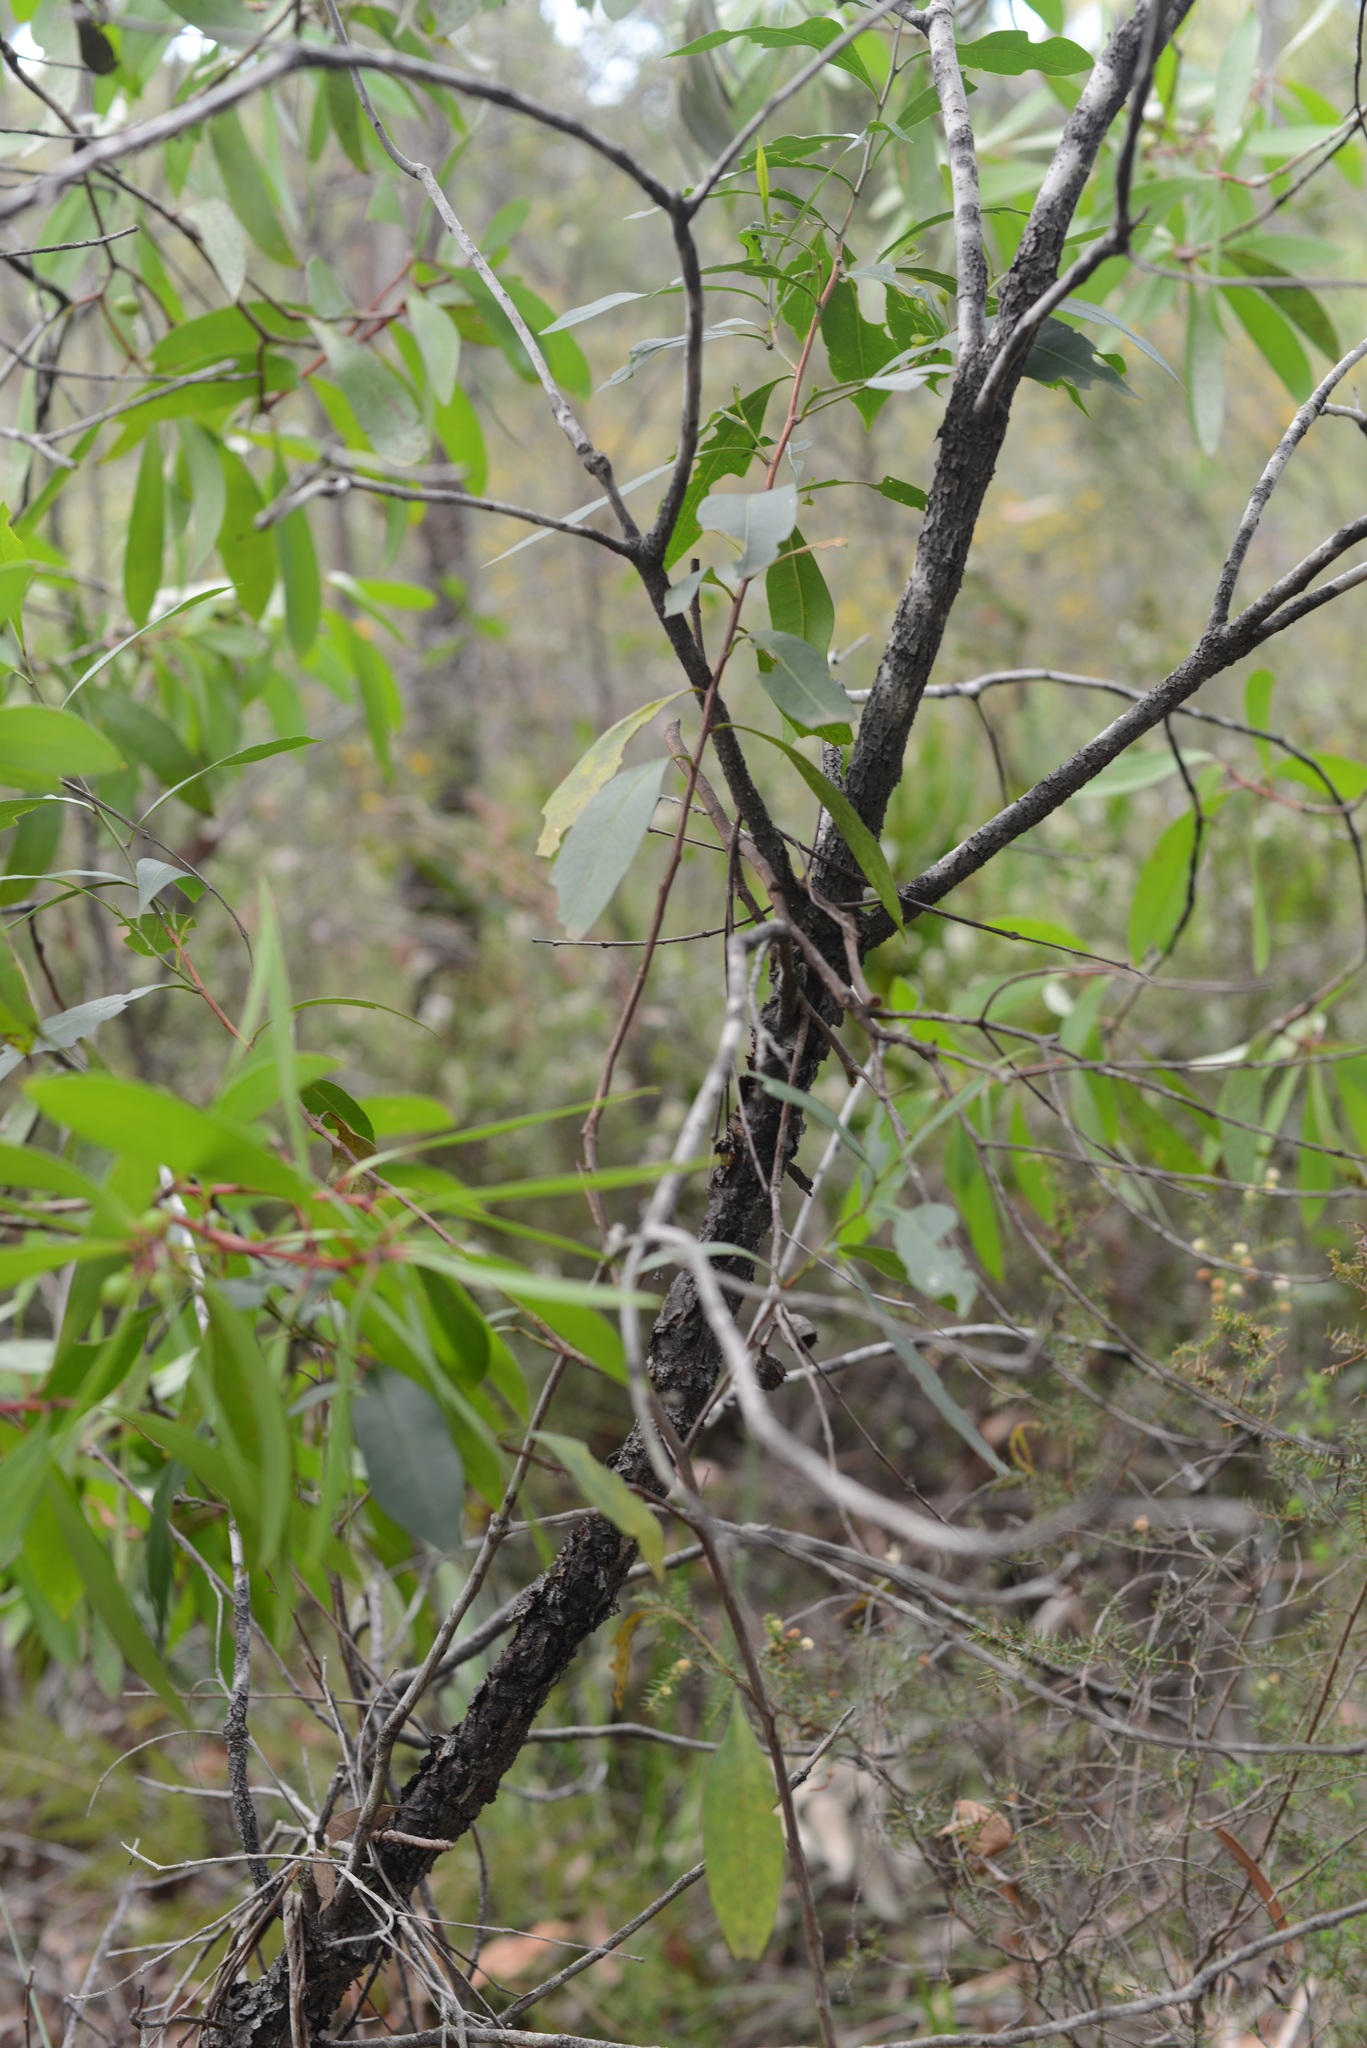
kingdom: Plantae
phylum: Tracheophyta
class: Magnoliopsida
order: Proteales
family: Proteaceae
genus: Persoonia
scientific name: Persoonia levis
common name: Smooth geebung
